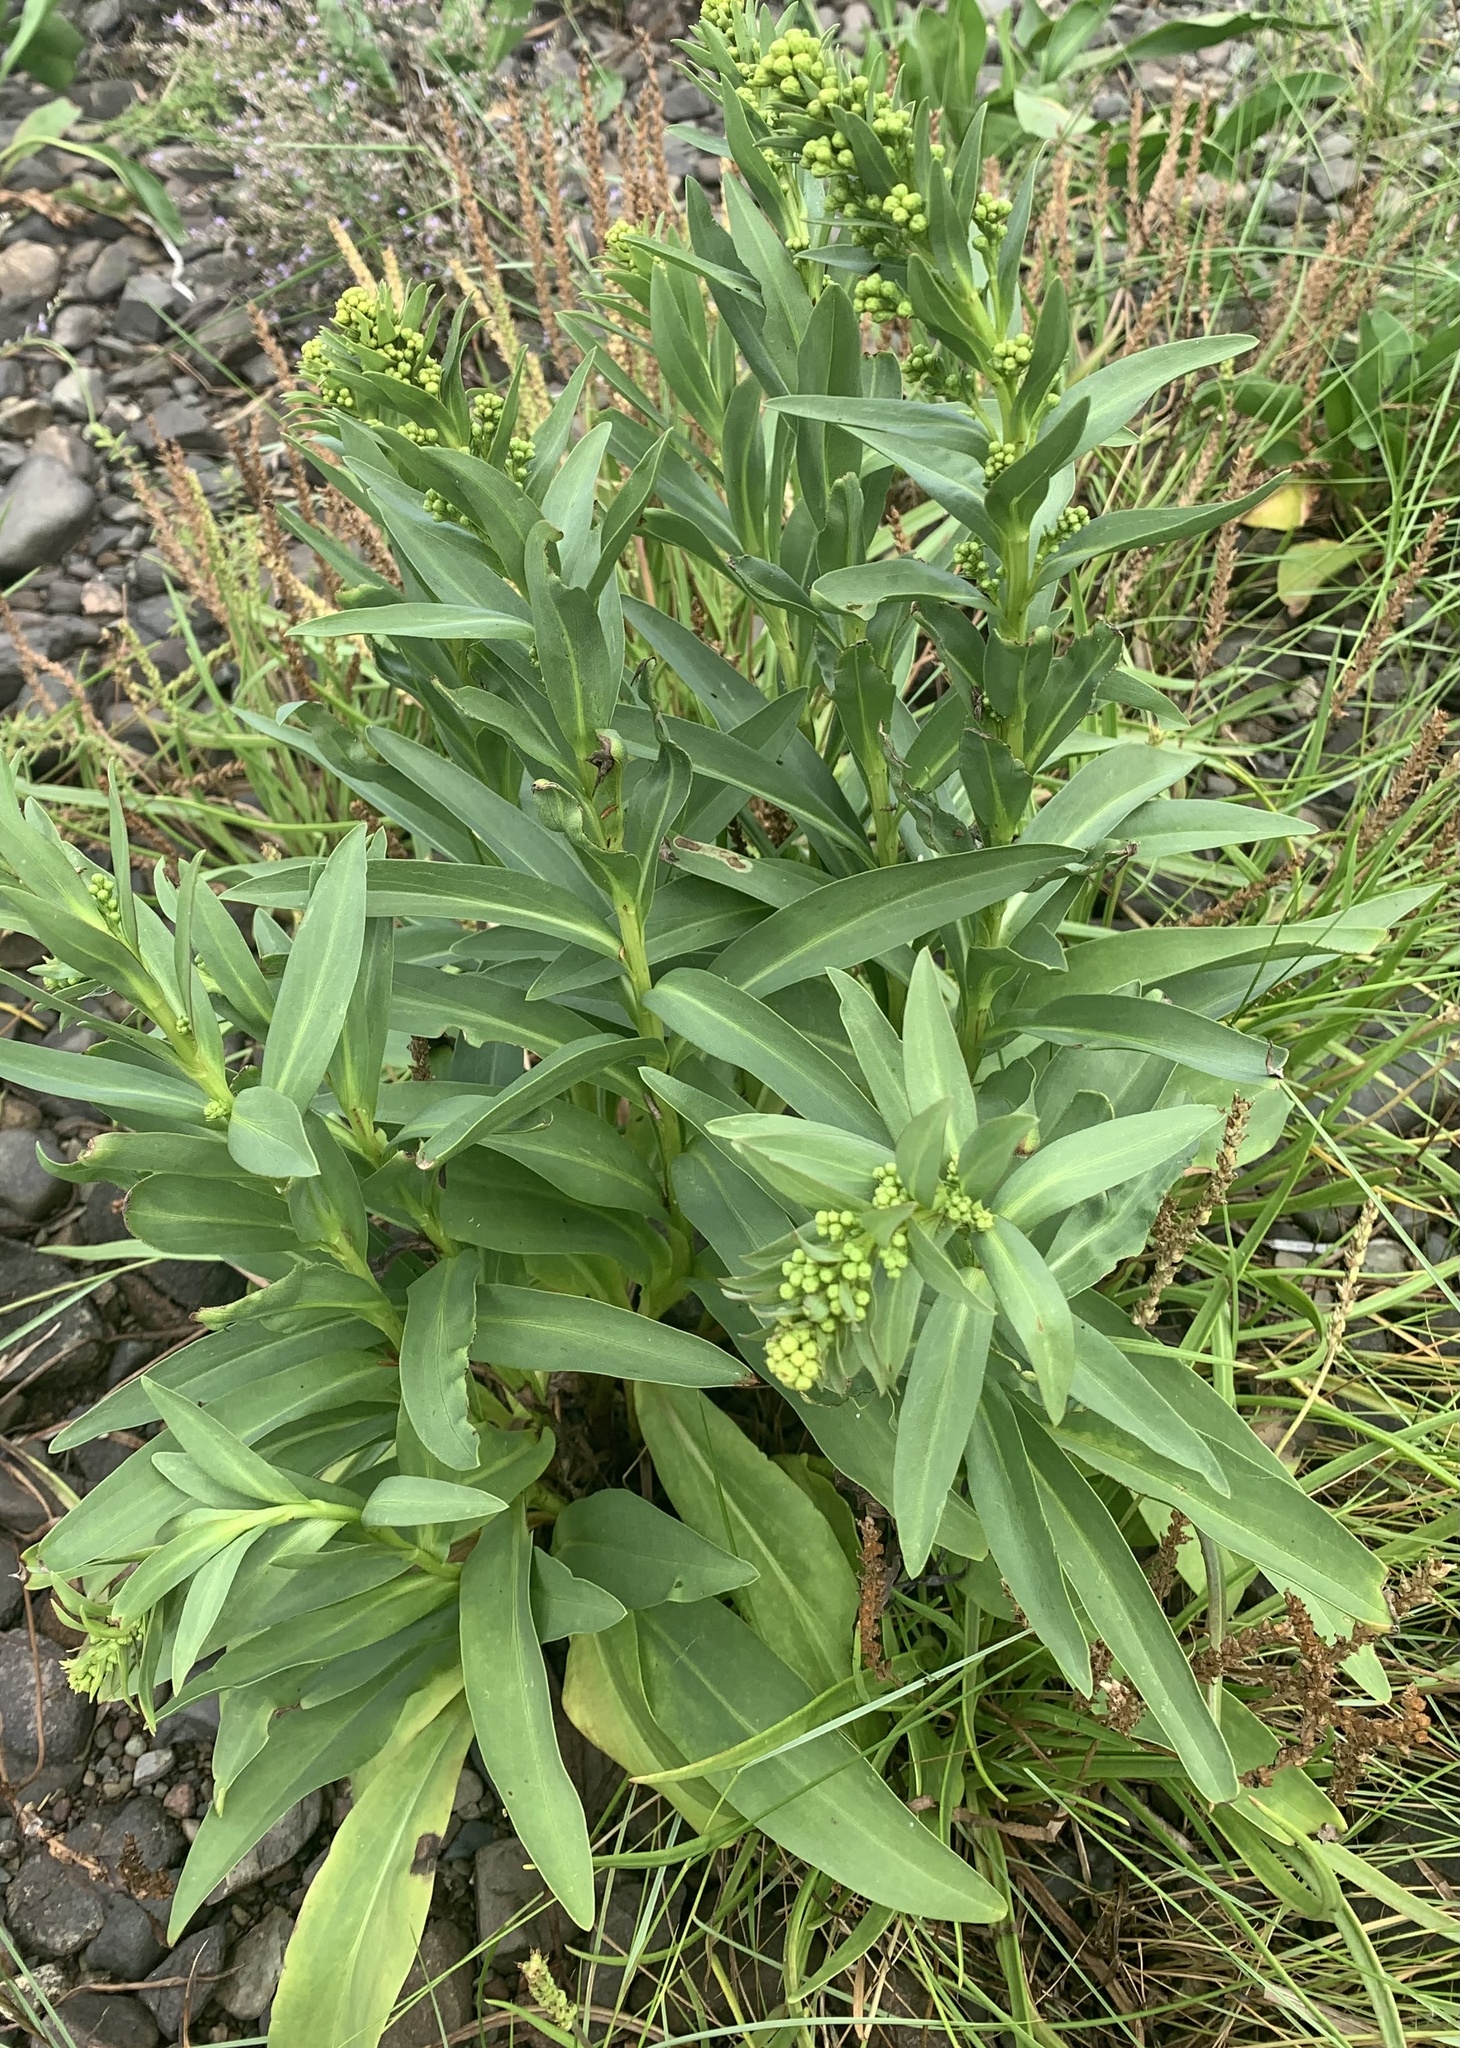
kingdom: Plantae
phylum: Tracheophyta
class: Magnoliopsida
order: Asterales
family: Asteraceae
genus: Solidago
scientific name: Solidago sempervirens
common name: Salt-marsh goldenrod
